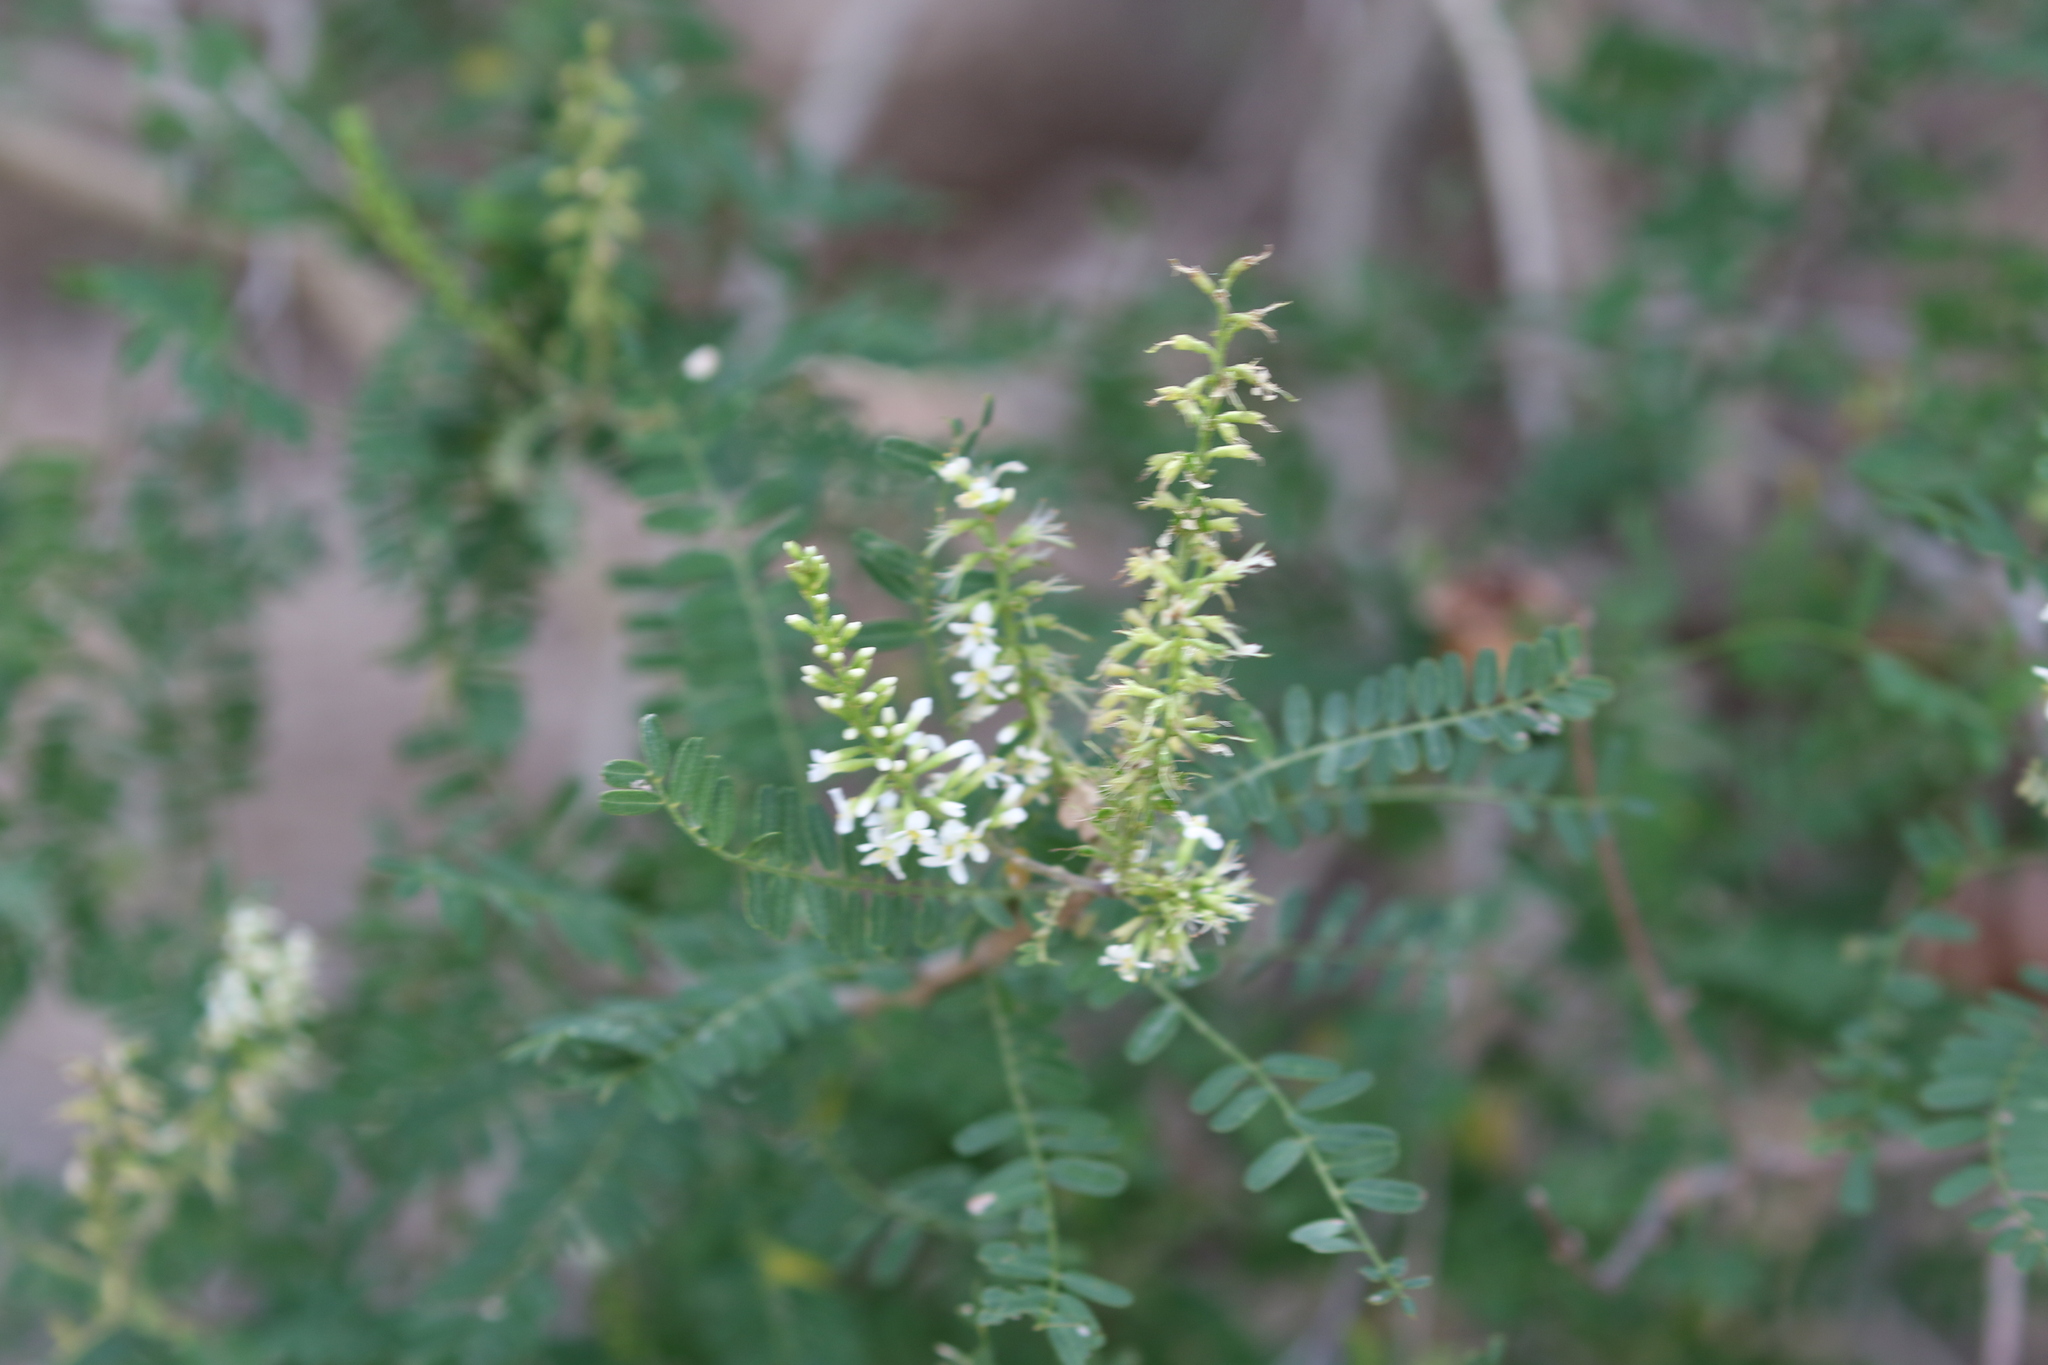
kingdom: Plantae
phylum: Tracheophyta
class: Magnoliopsida
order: Fabales
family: Fabaceae
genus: Eysenhardtia
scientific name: Eysenhardtia texana
